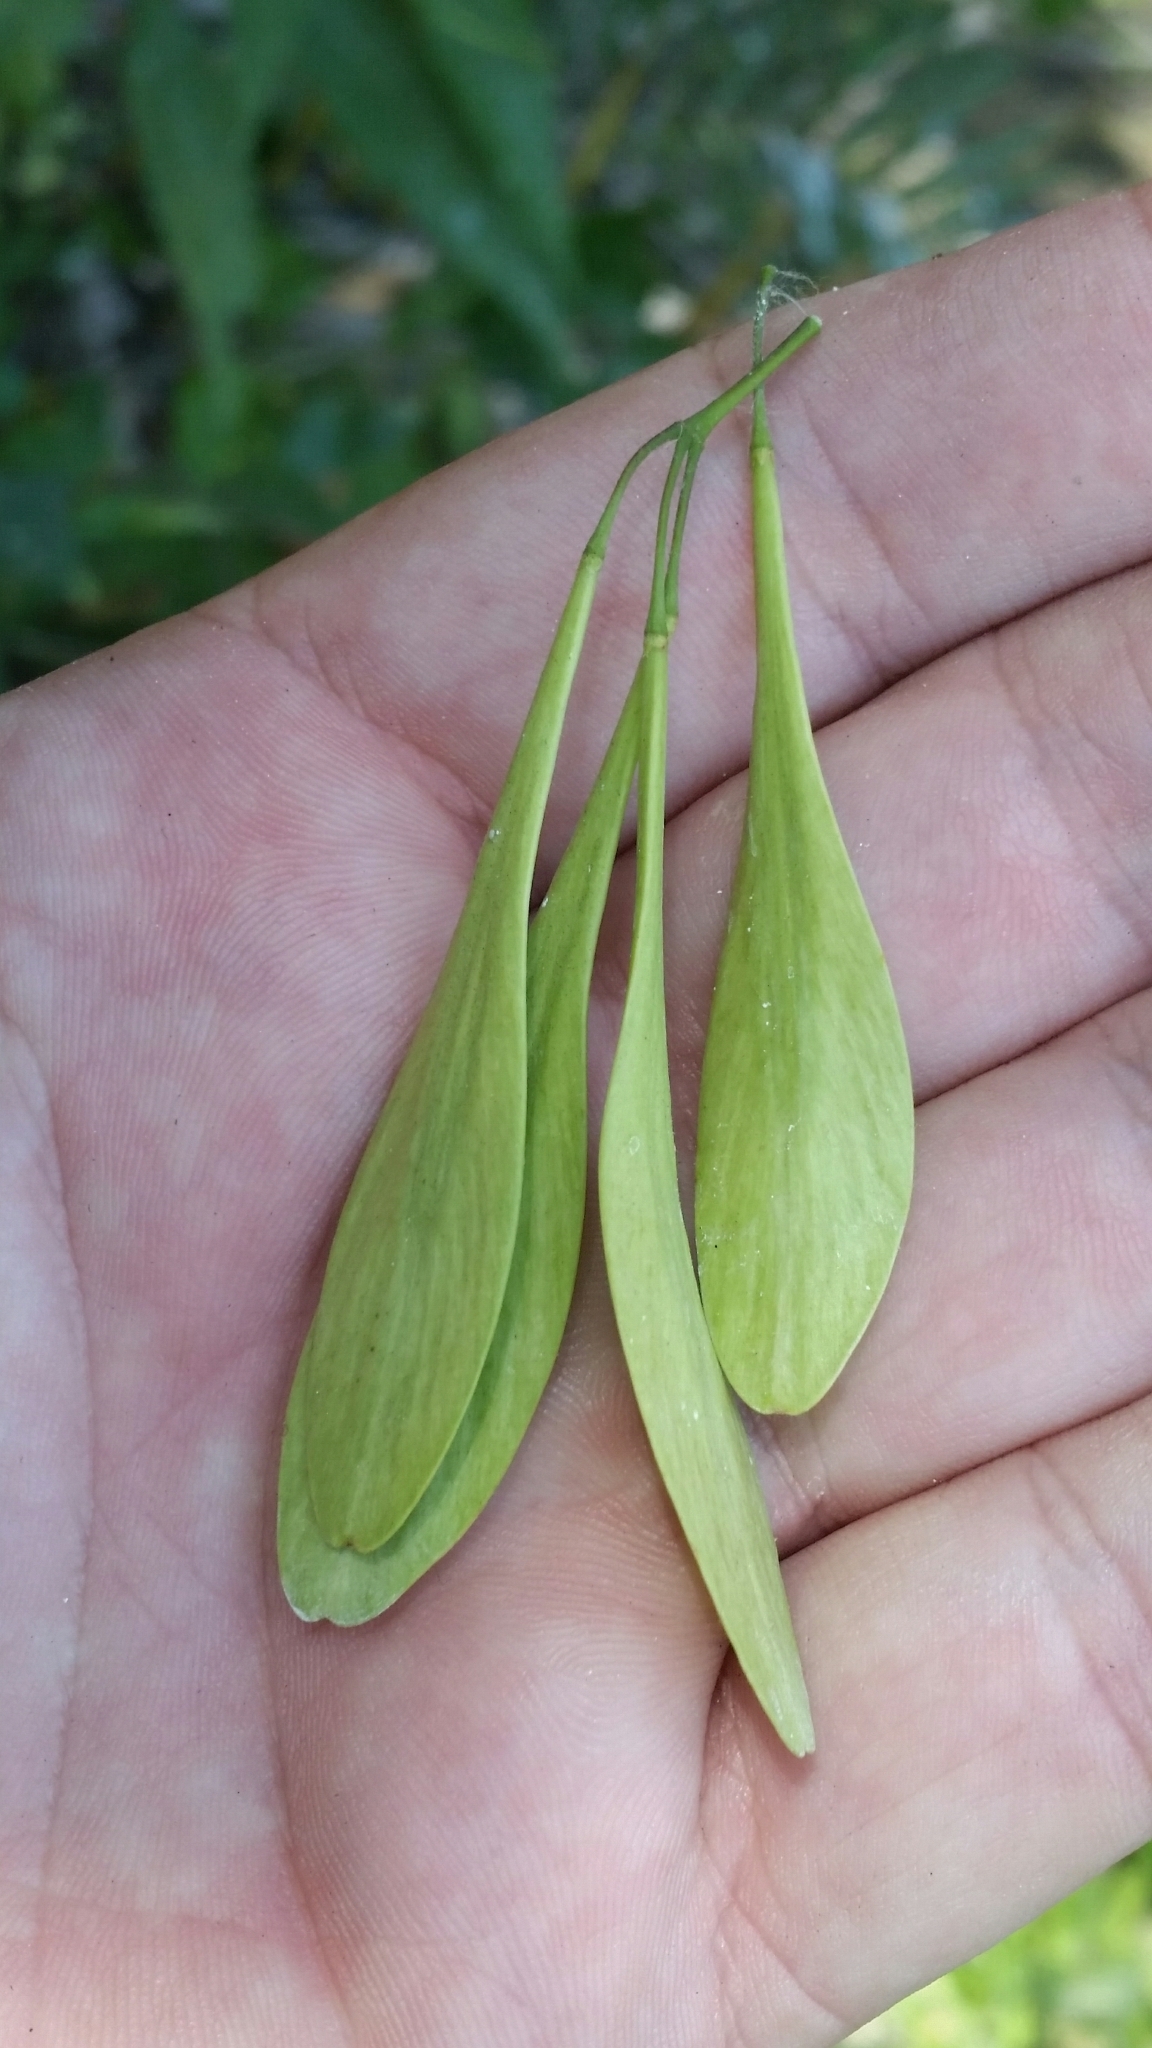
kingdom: Plantae
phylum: Tracheophyta
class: Magnoliopsida
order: Lamiales
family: Oleaceae
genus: Fraxinus
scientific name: Fraxinus caroliniana
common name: Carolina ash
